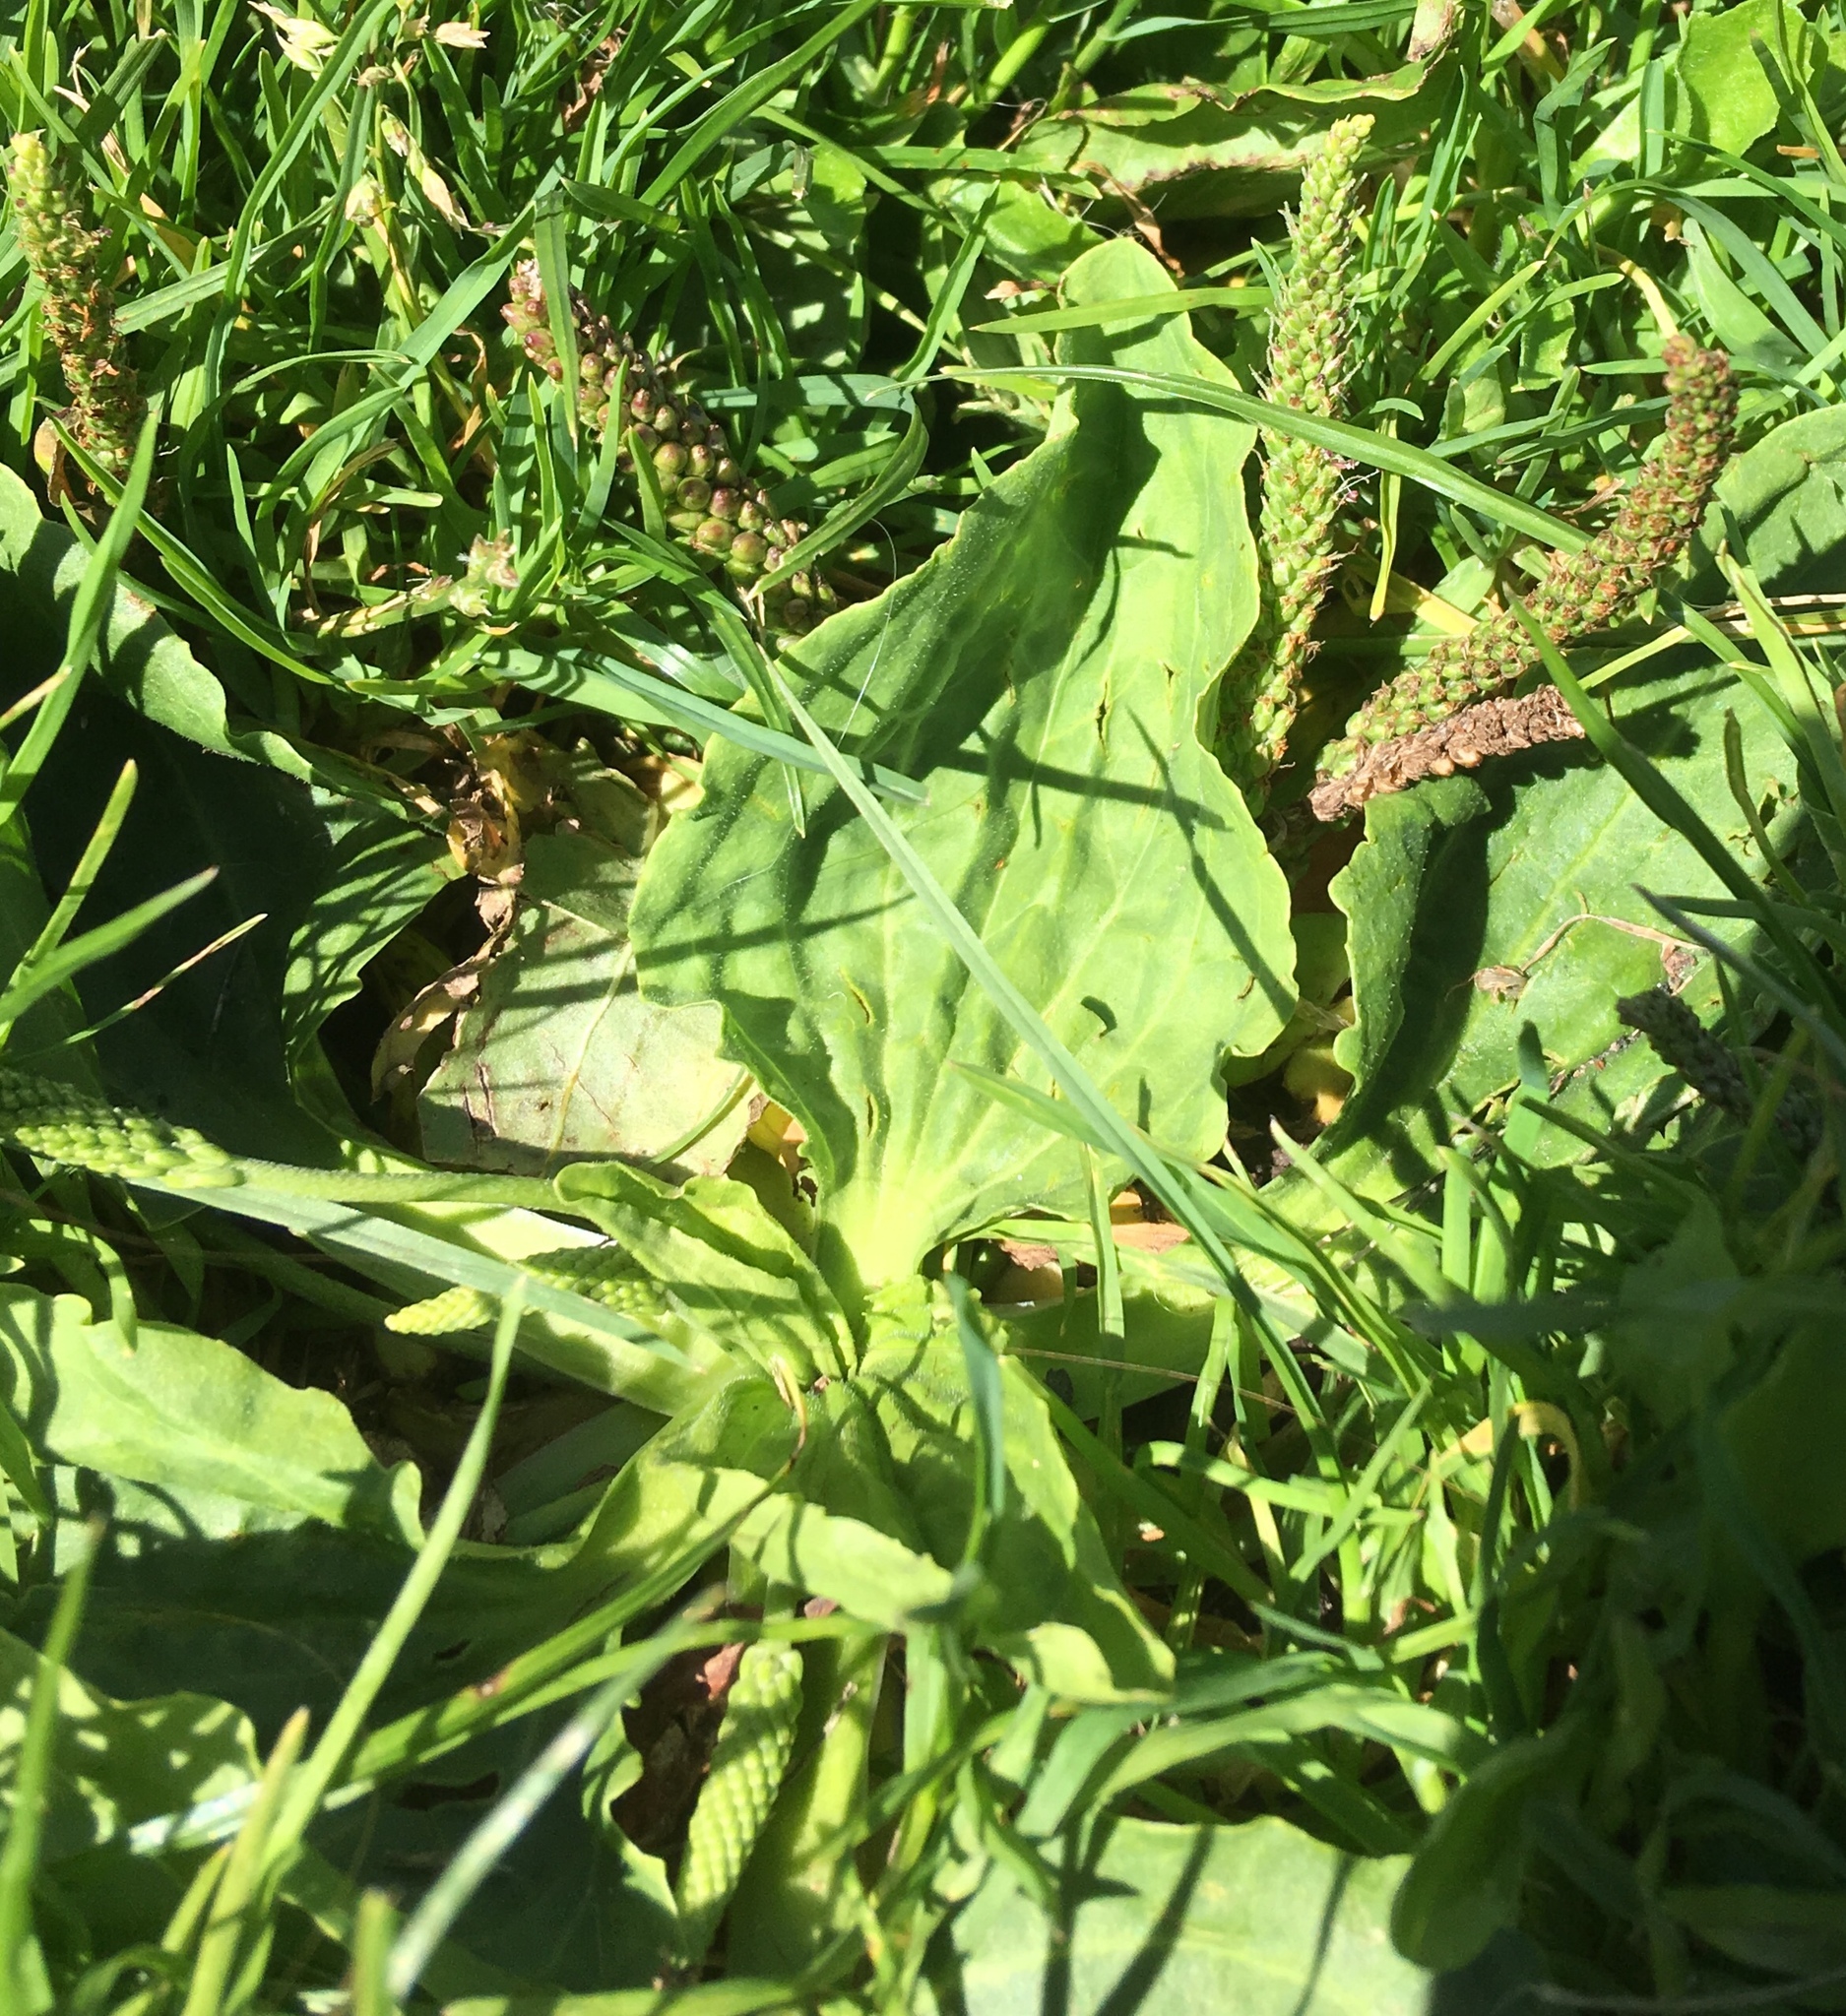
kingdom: Plantae
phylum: Tracheophyta
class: Magnoliopsida
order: Lamiales
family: Plantaginaceae
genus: Plantago
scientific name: Plantago major
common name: Common plantain
